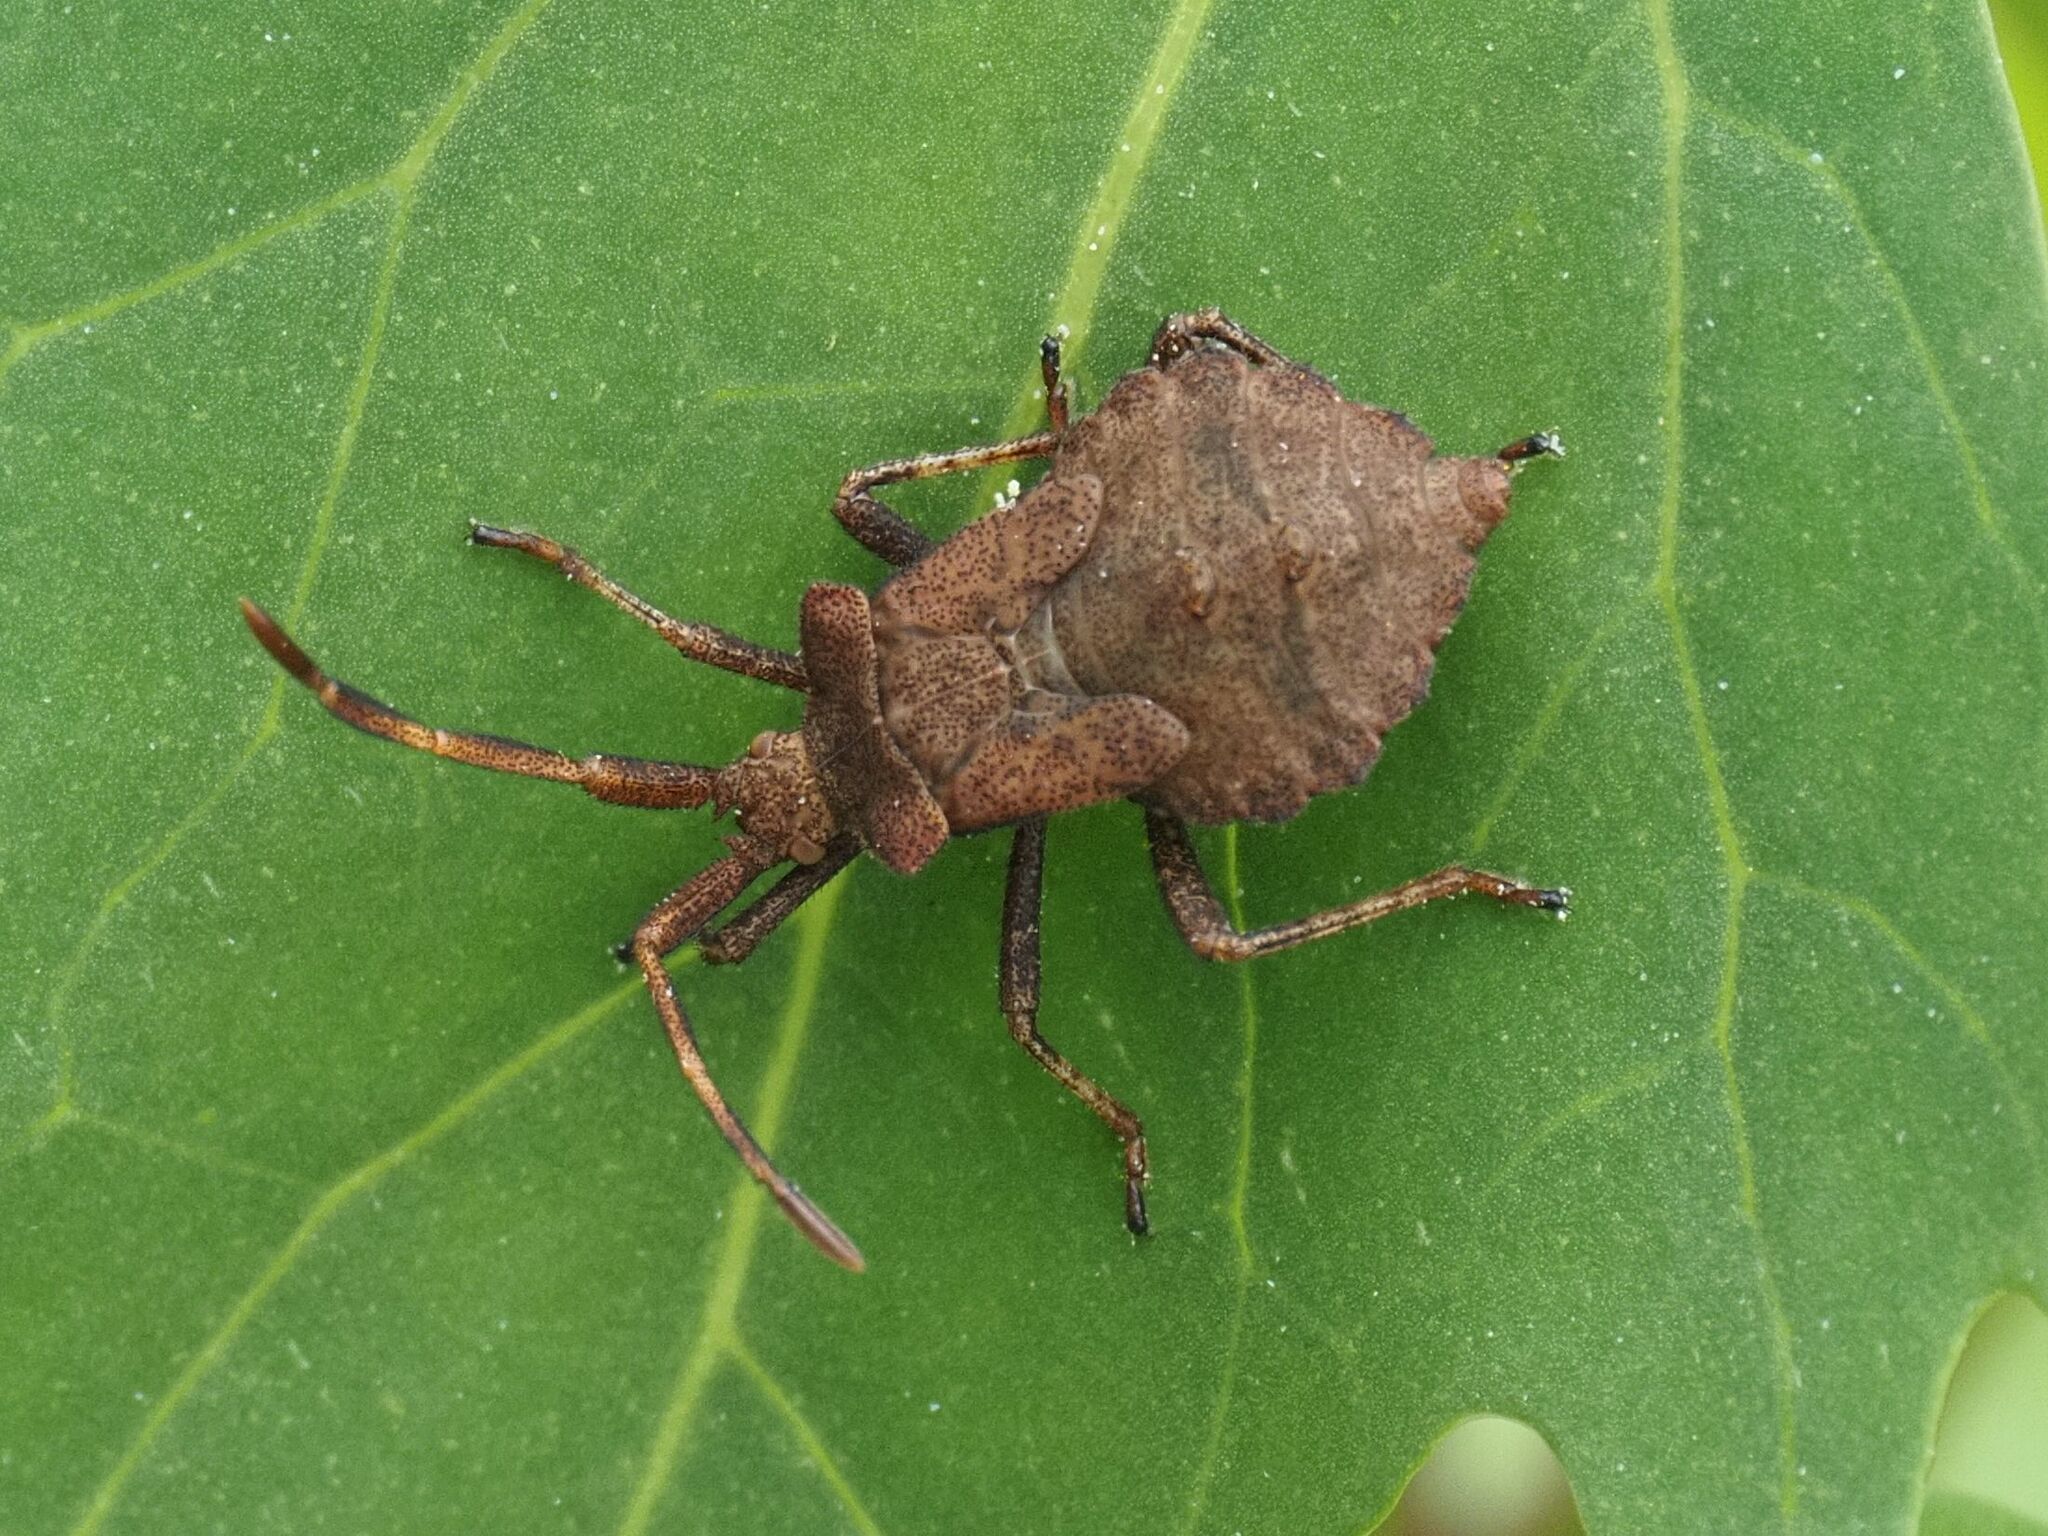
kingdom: Animalia
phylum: Arthropoda
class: Insecta
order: Hemiptera
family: Coreidae
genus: Coreus
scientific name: Coreus marginatus
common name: Dock bug
